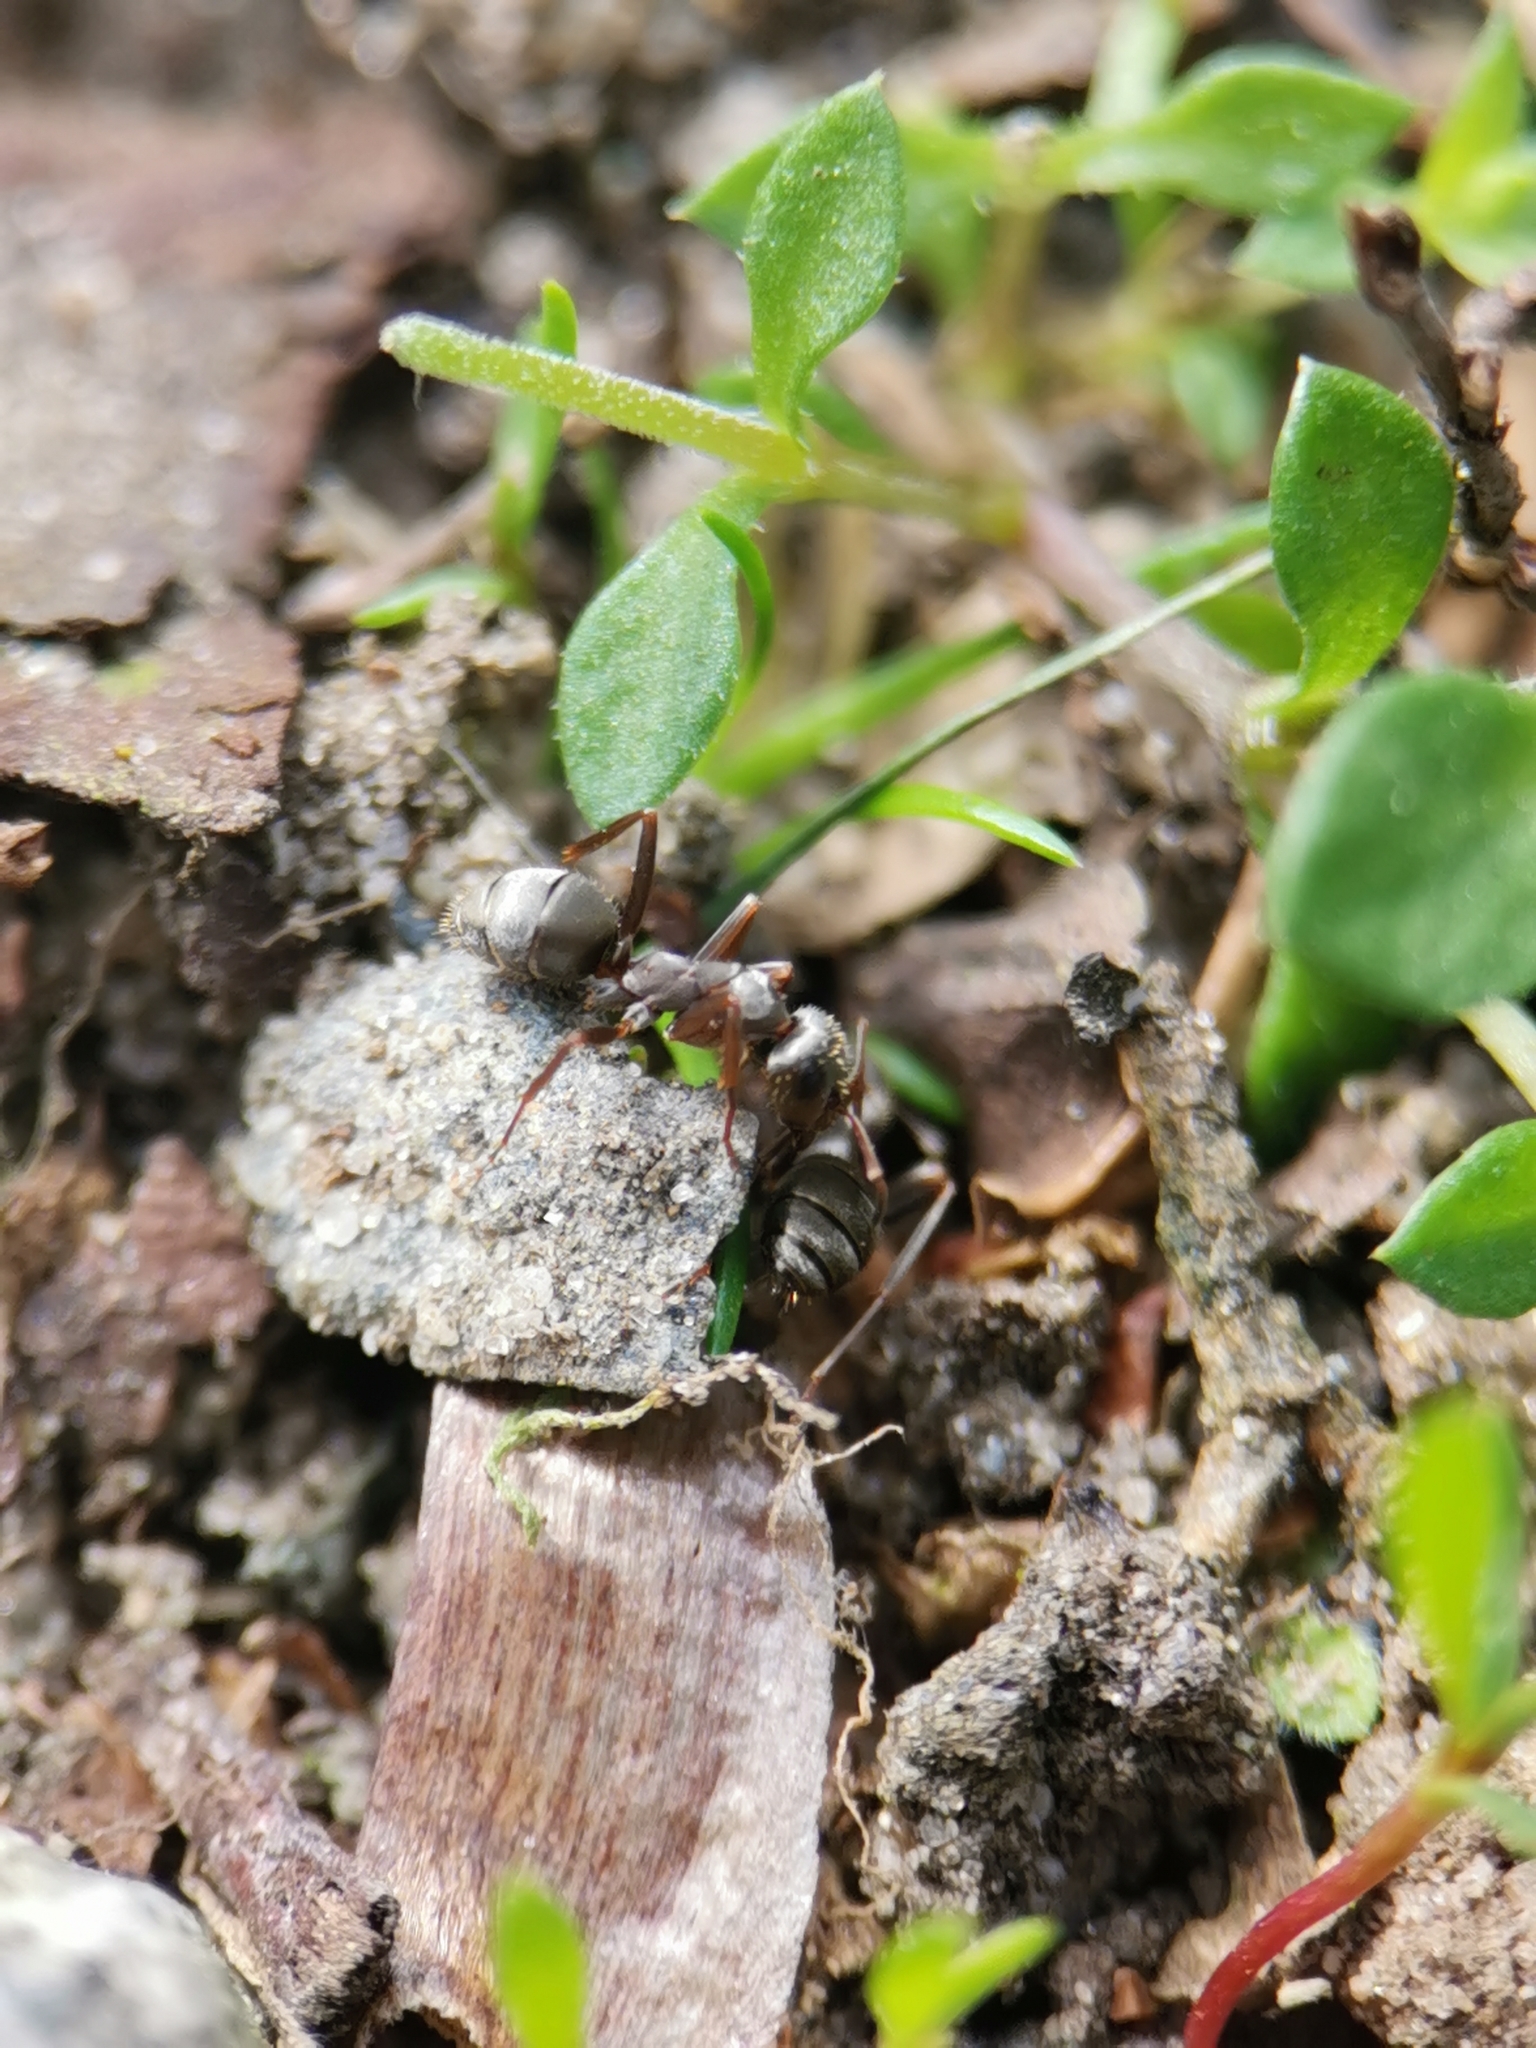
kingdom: Animalia
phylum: Arthropoda
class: Insecta
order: Hymenoptera
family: Formicidae
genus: Formica
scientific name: Formica cinerea
